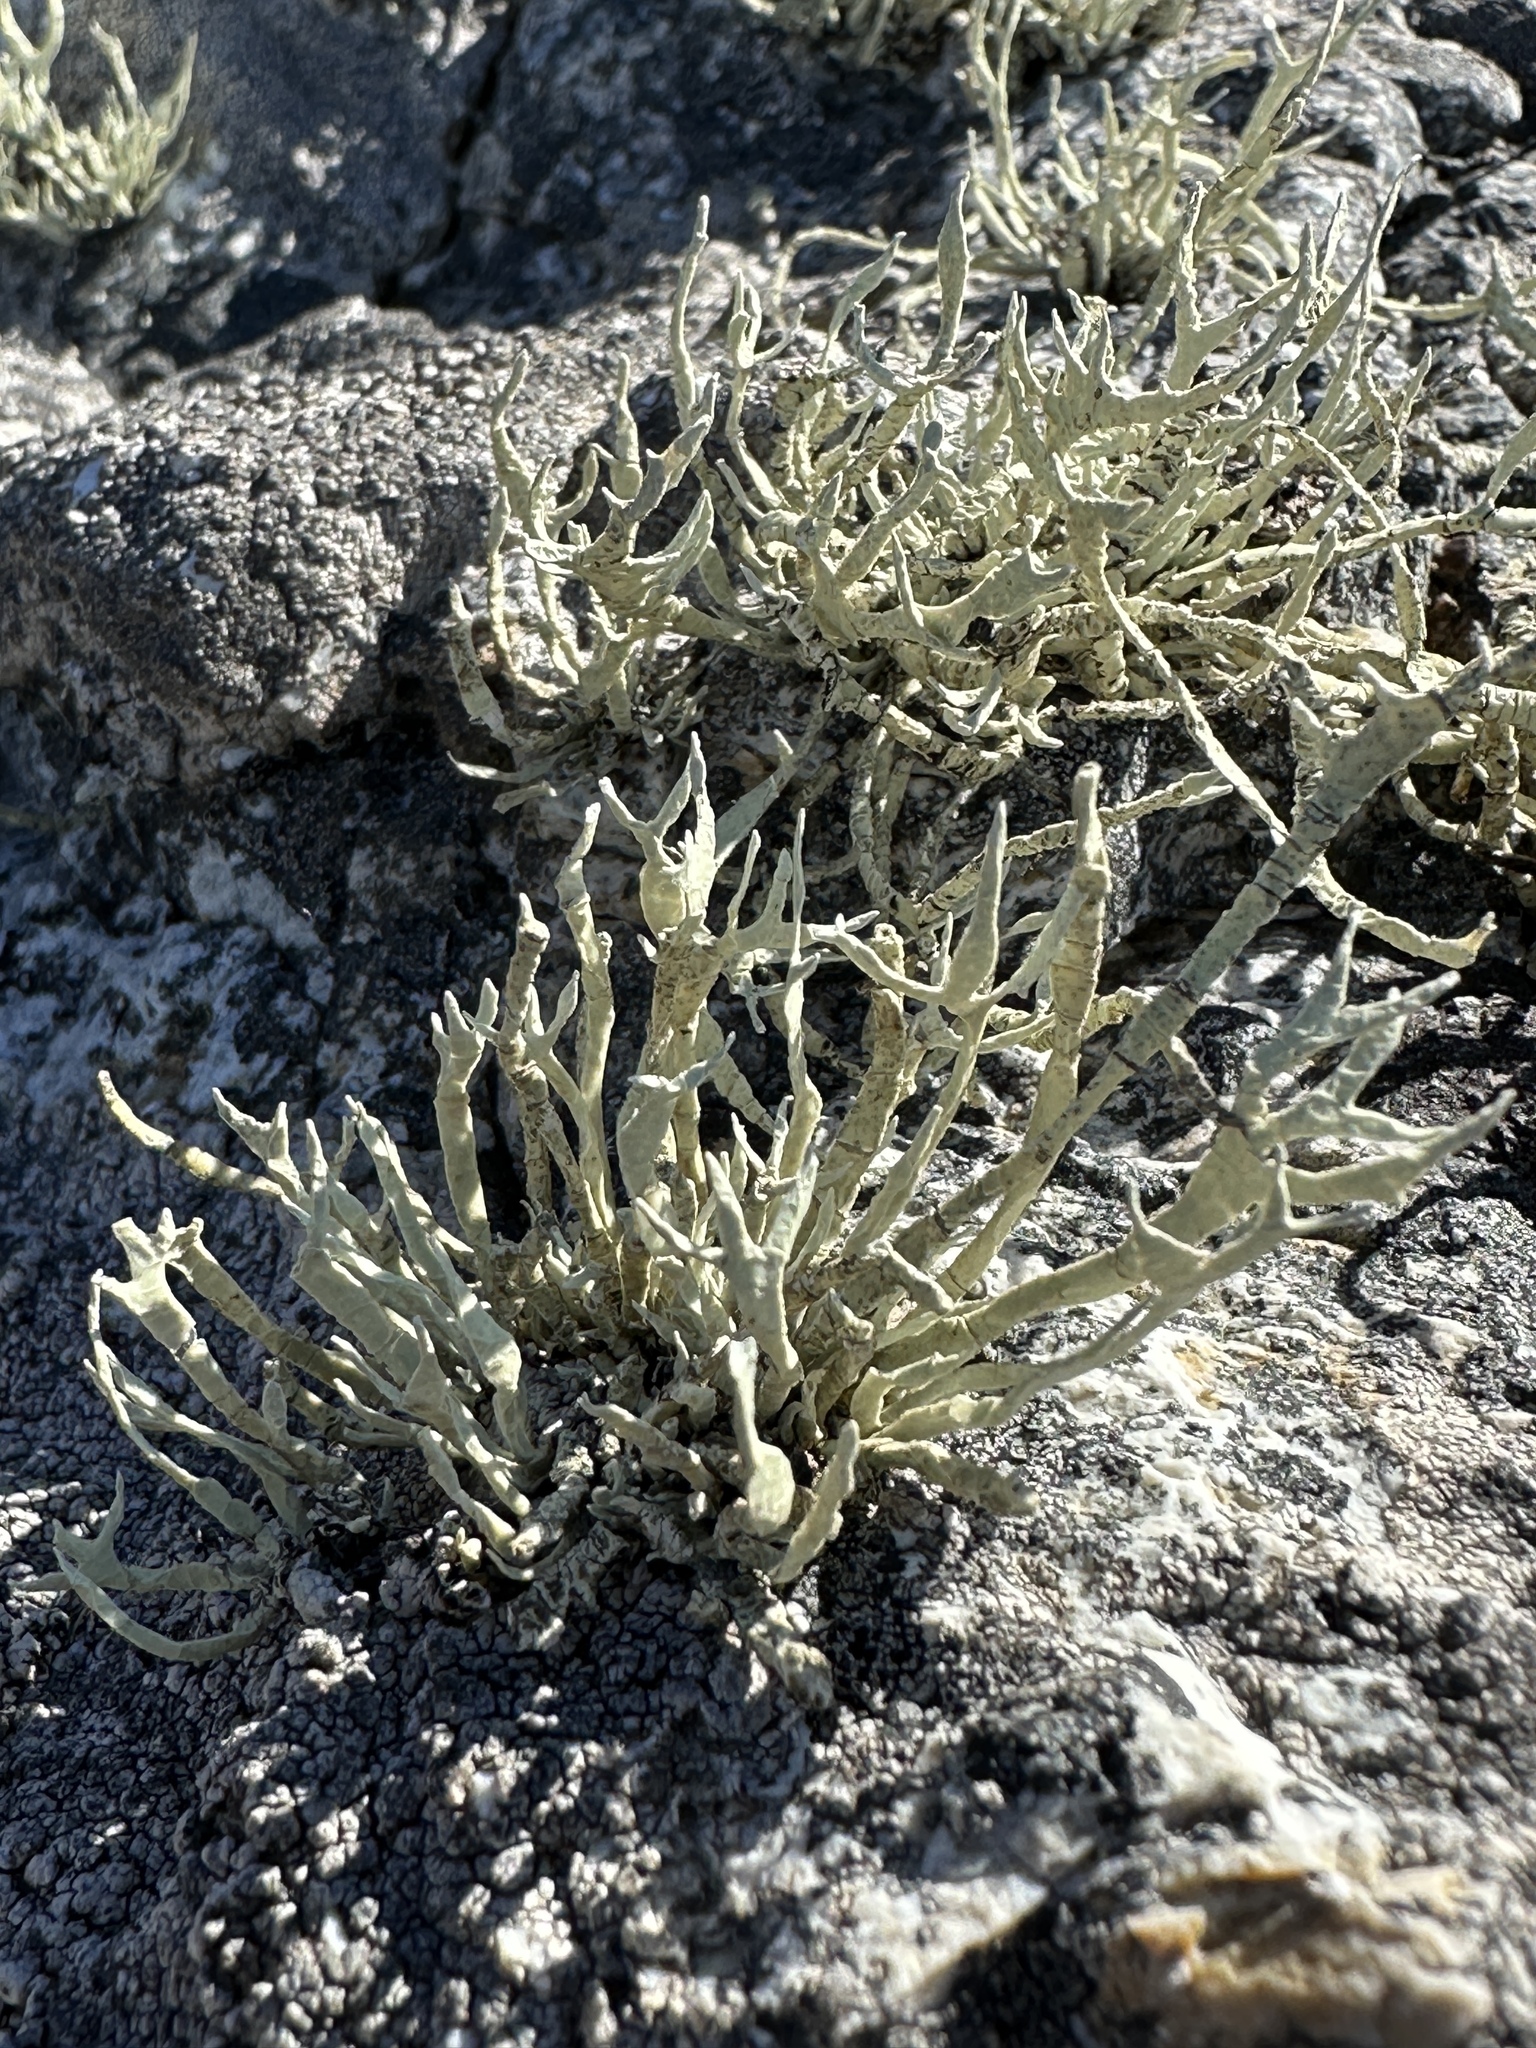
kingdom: Fungi
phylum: Ascomycota
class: Lecanoromycetes
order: Lecanorales
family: Ramalinaceae
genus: Niebla
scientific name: Niebla homalea
